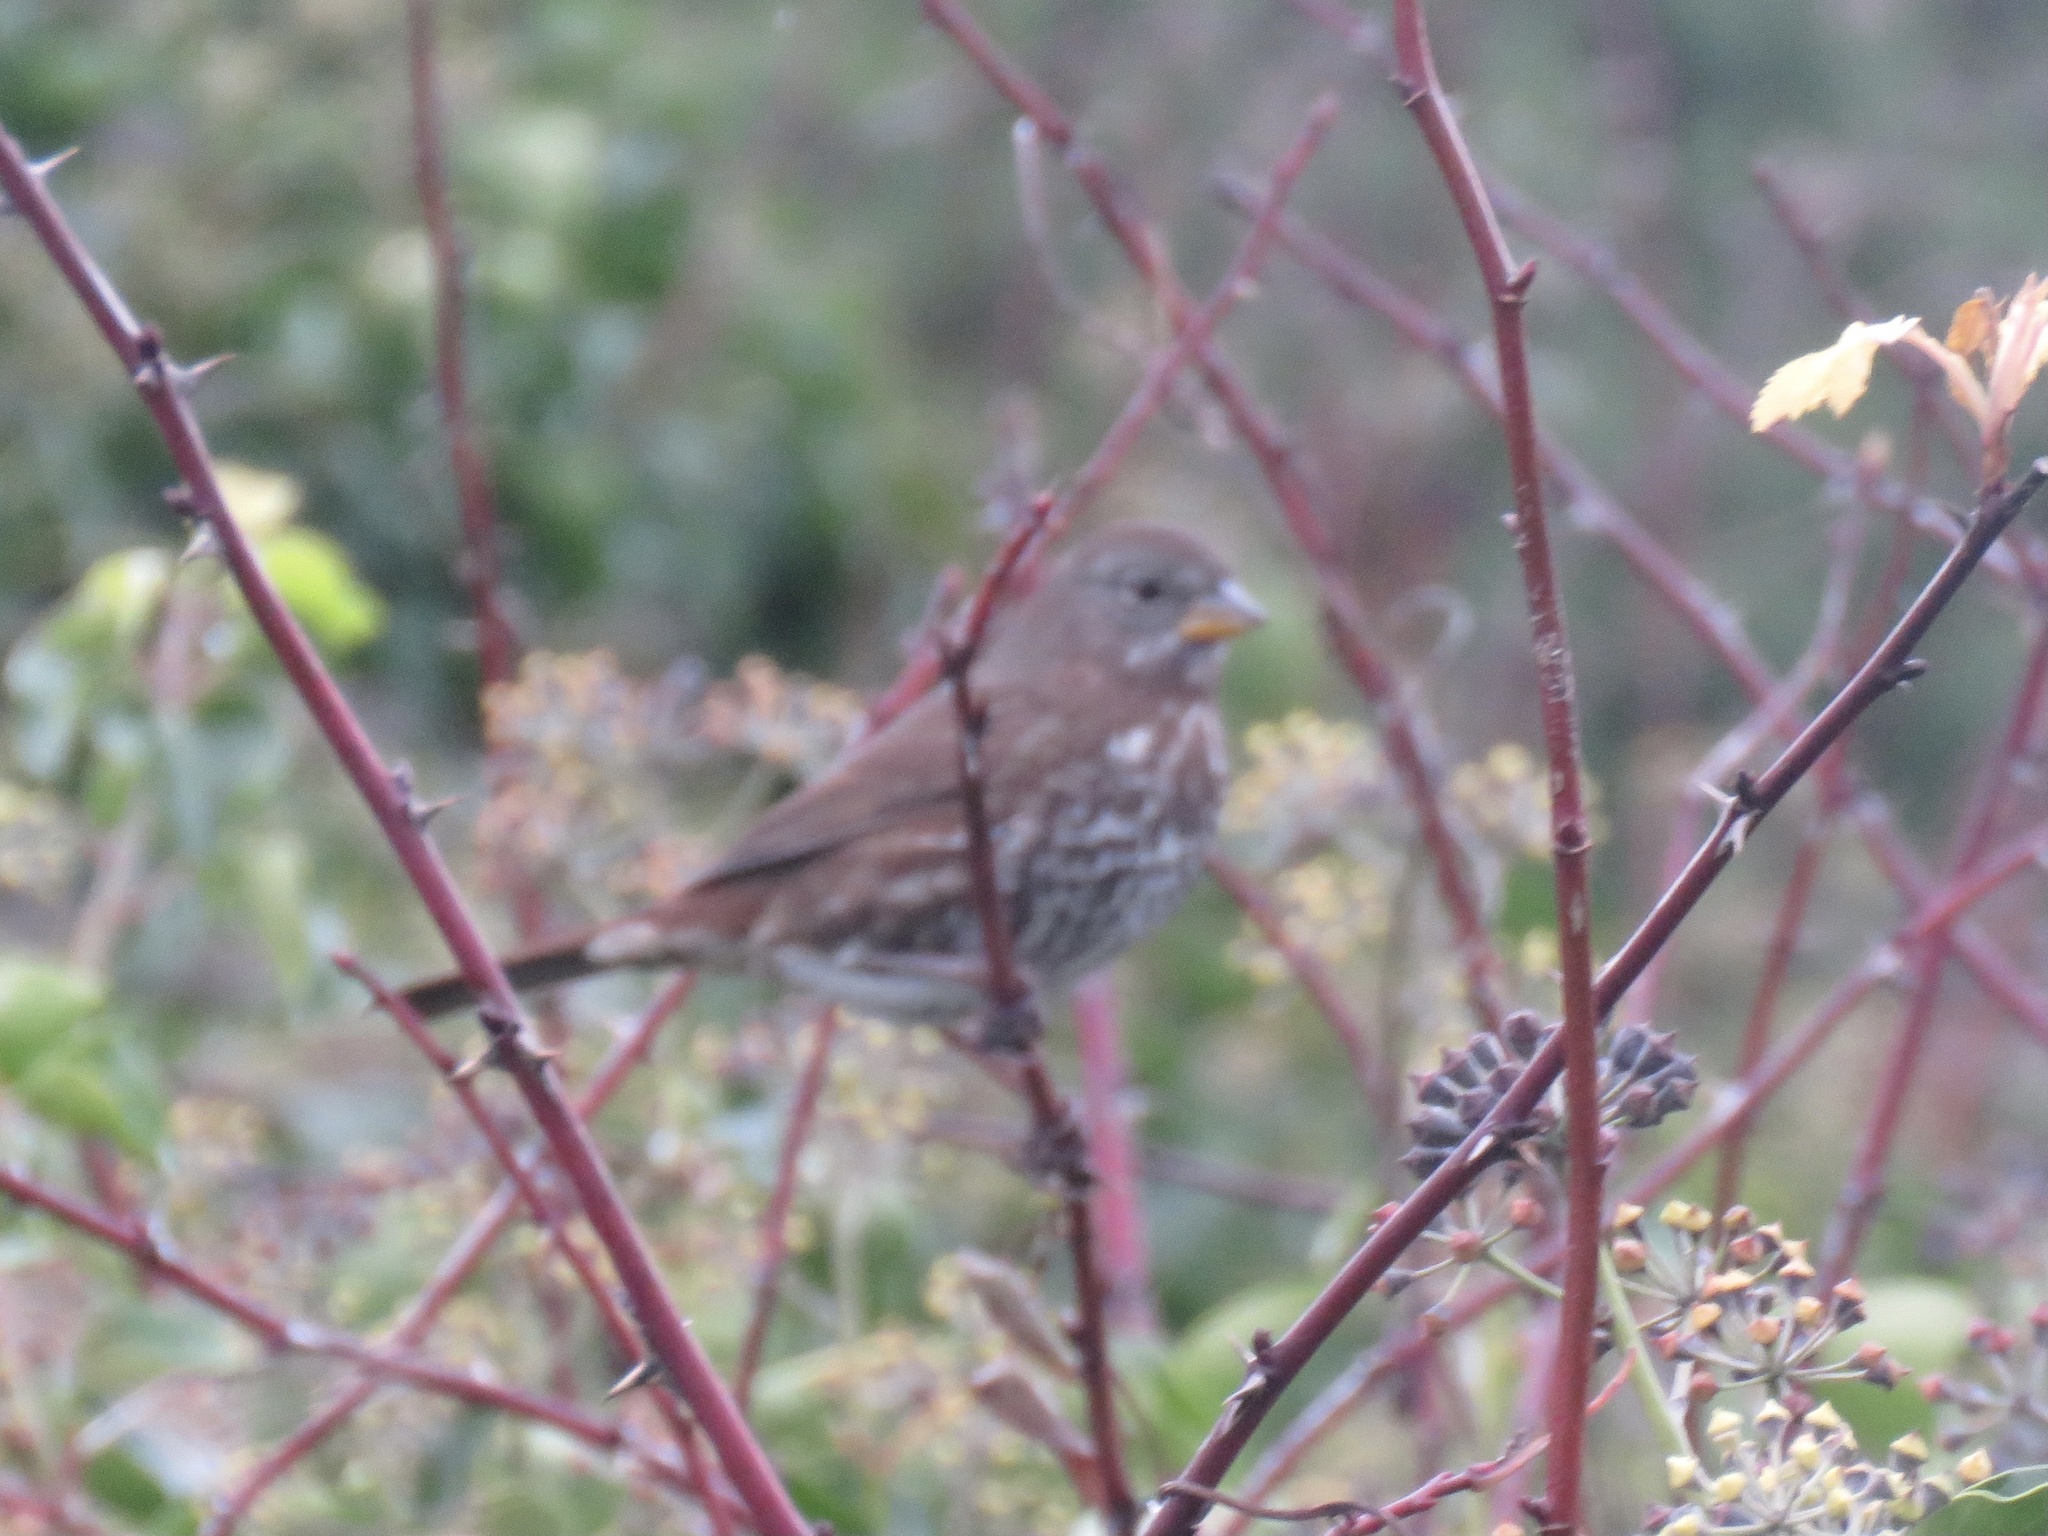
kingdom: Animalia
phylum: Chordata
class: Aves
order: Passeriformes
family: Passerellidae
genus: Passerella
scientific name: Passerella iliaca
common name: Fox sparrow
